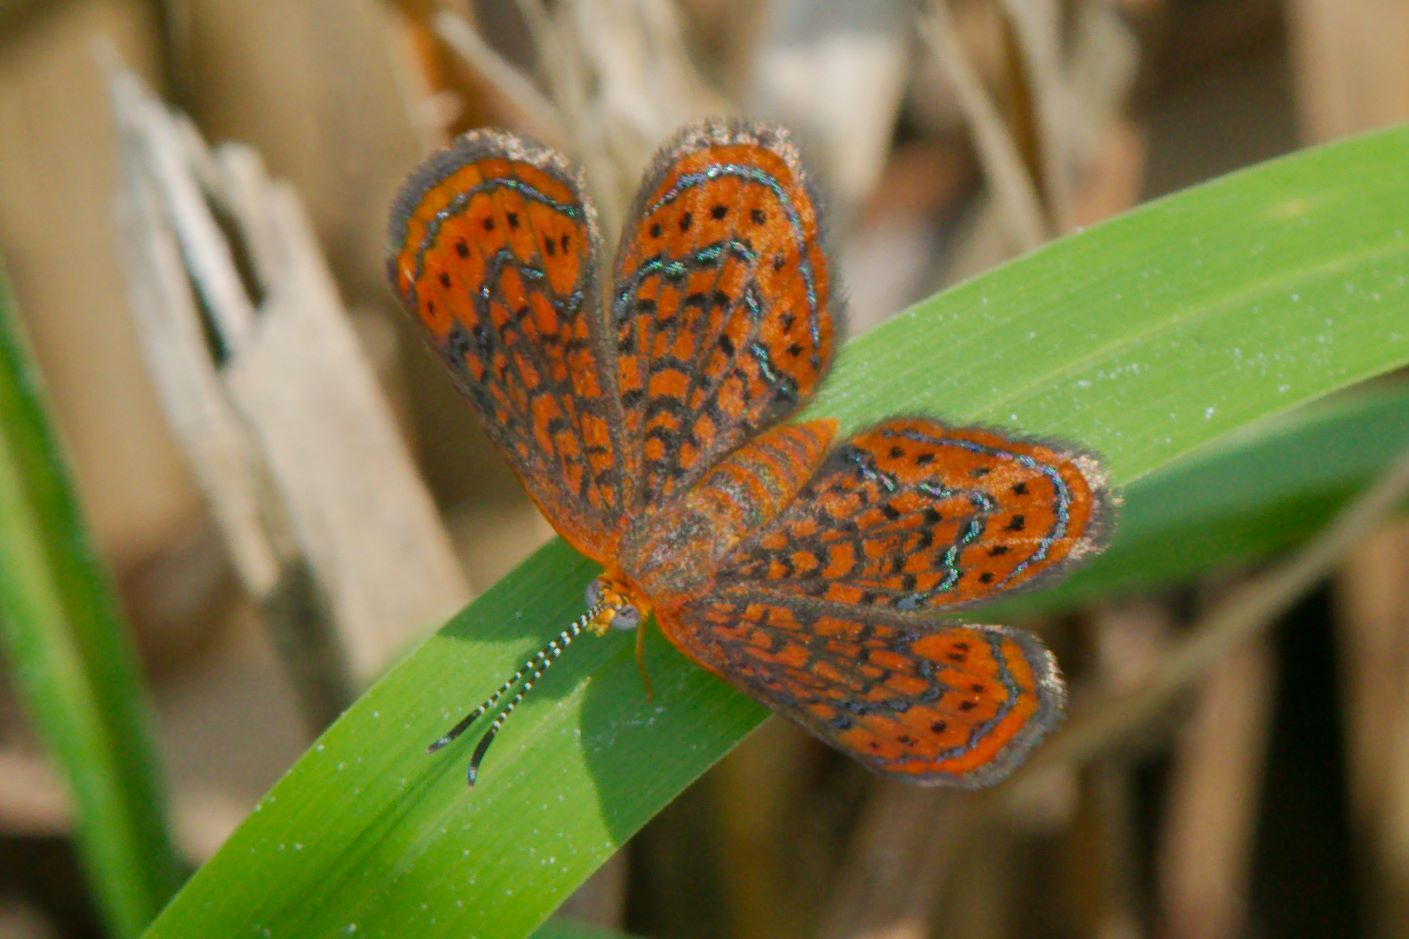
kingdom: Animalia
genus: Calephelis
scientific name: Calephelis virginiensis
